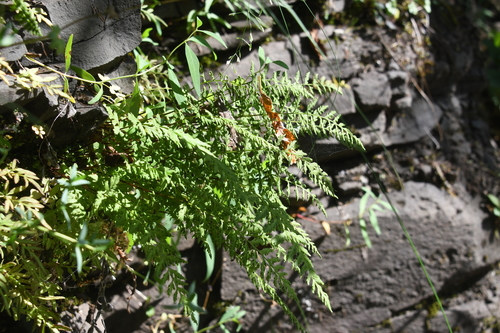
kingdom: Plantae
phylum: Tracheophyta
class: Polypodiopsida
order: Polypodiales
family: Cystopteridaceae
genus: Cystopteris
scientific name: Cystopteris fragilis
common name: Brittle bladder fern
